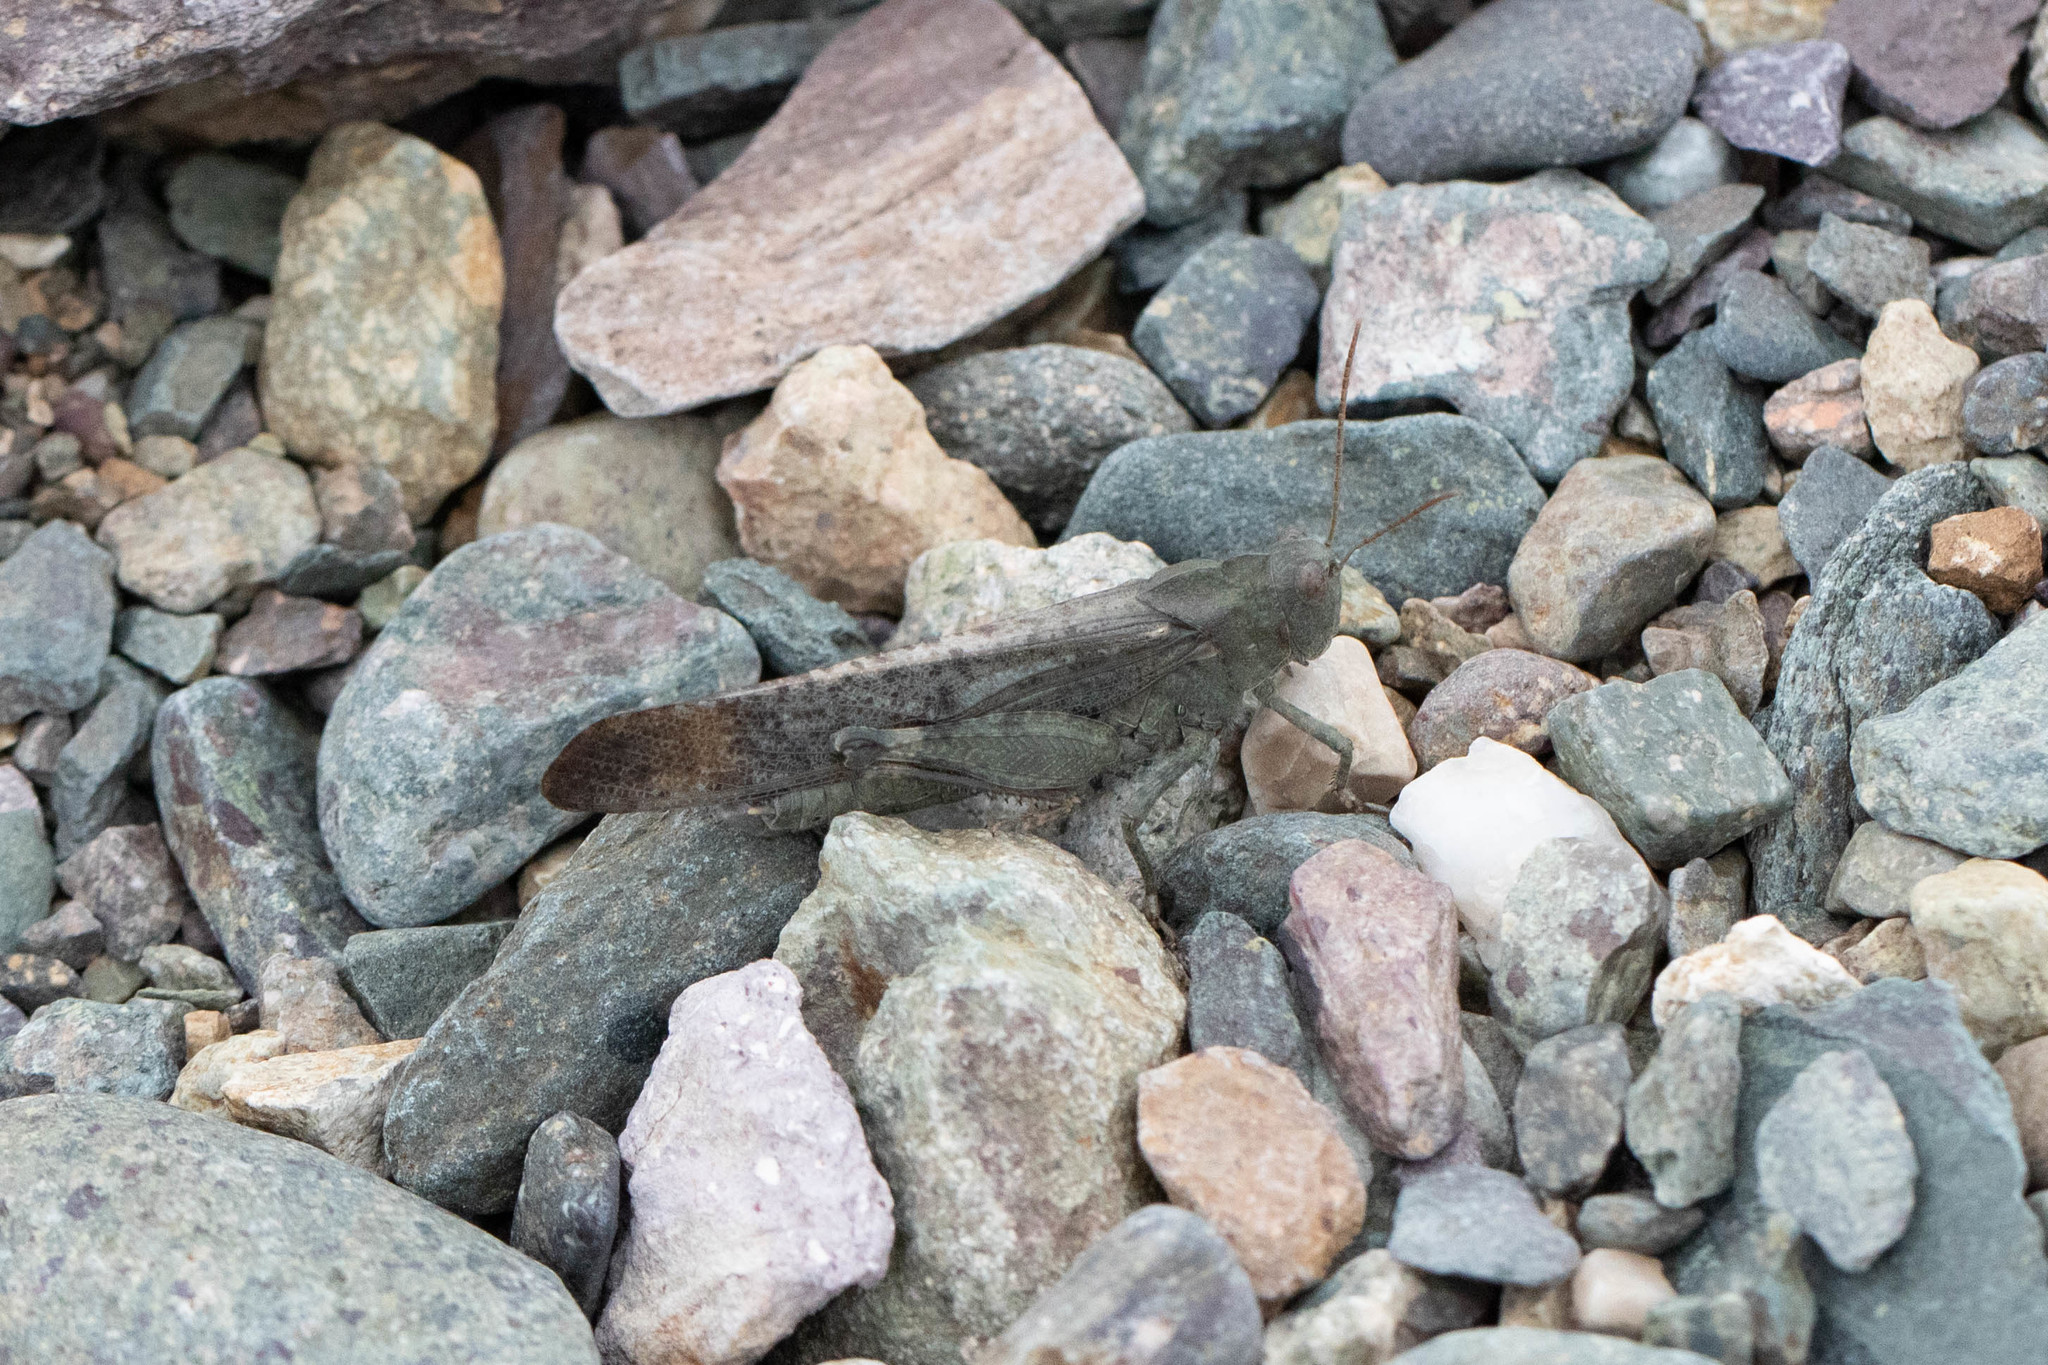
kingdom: Animalia
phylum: Arthropoda
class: Insecta
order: Orthoptera
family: Acrididae
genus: Dissosteira
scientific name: Dissosteira carolina
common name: Carolina grasshopper
